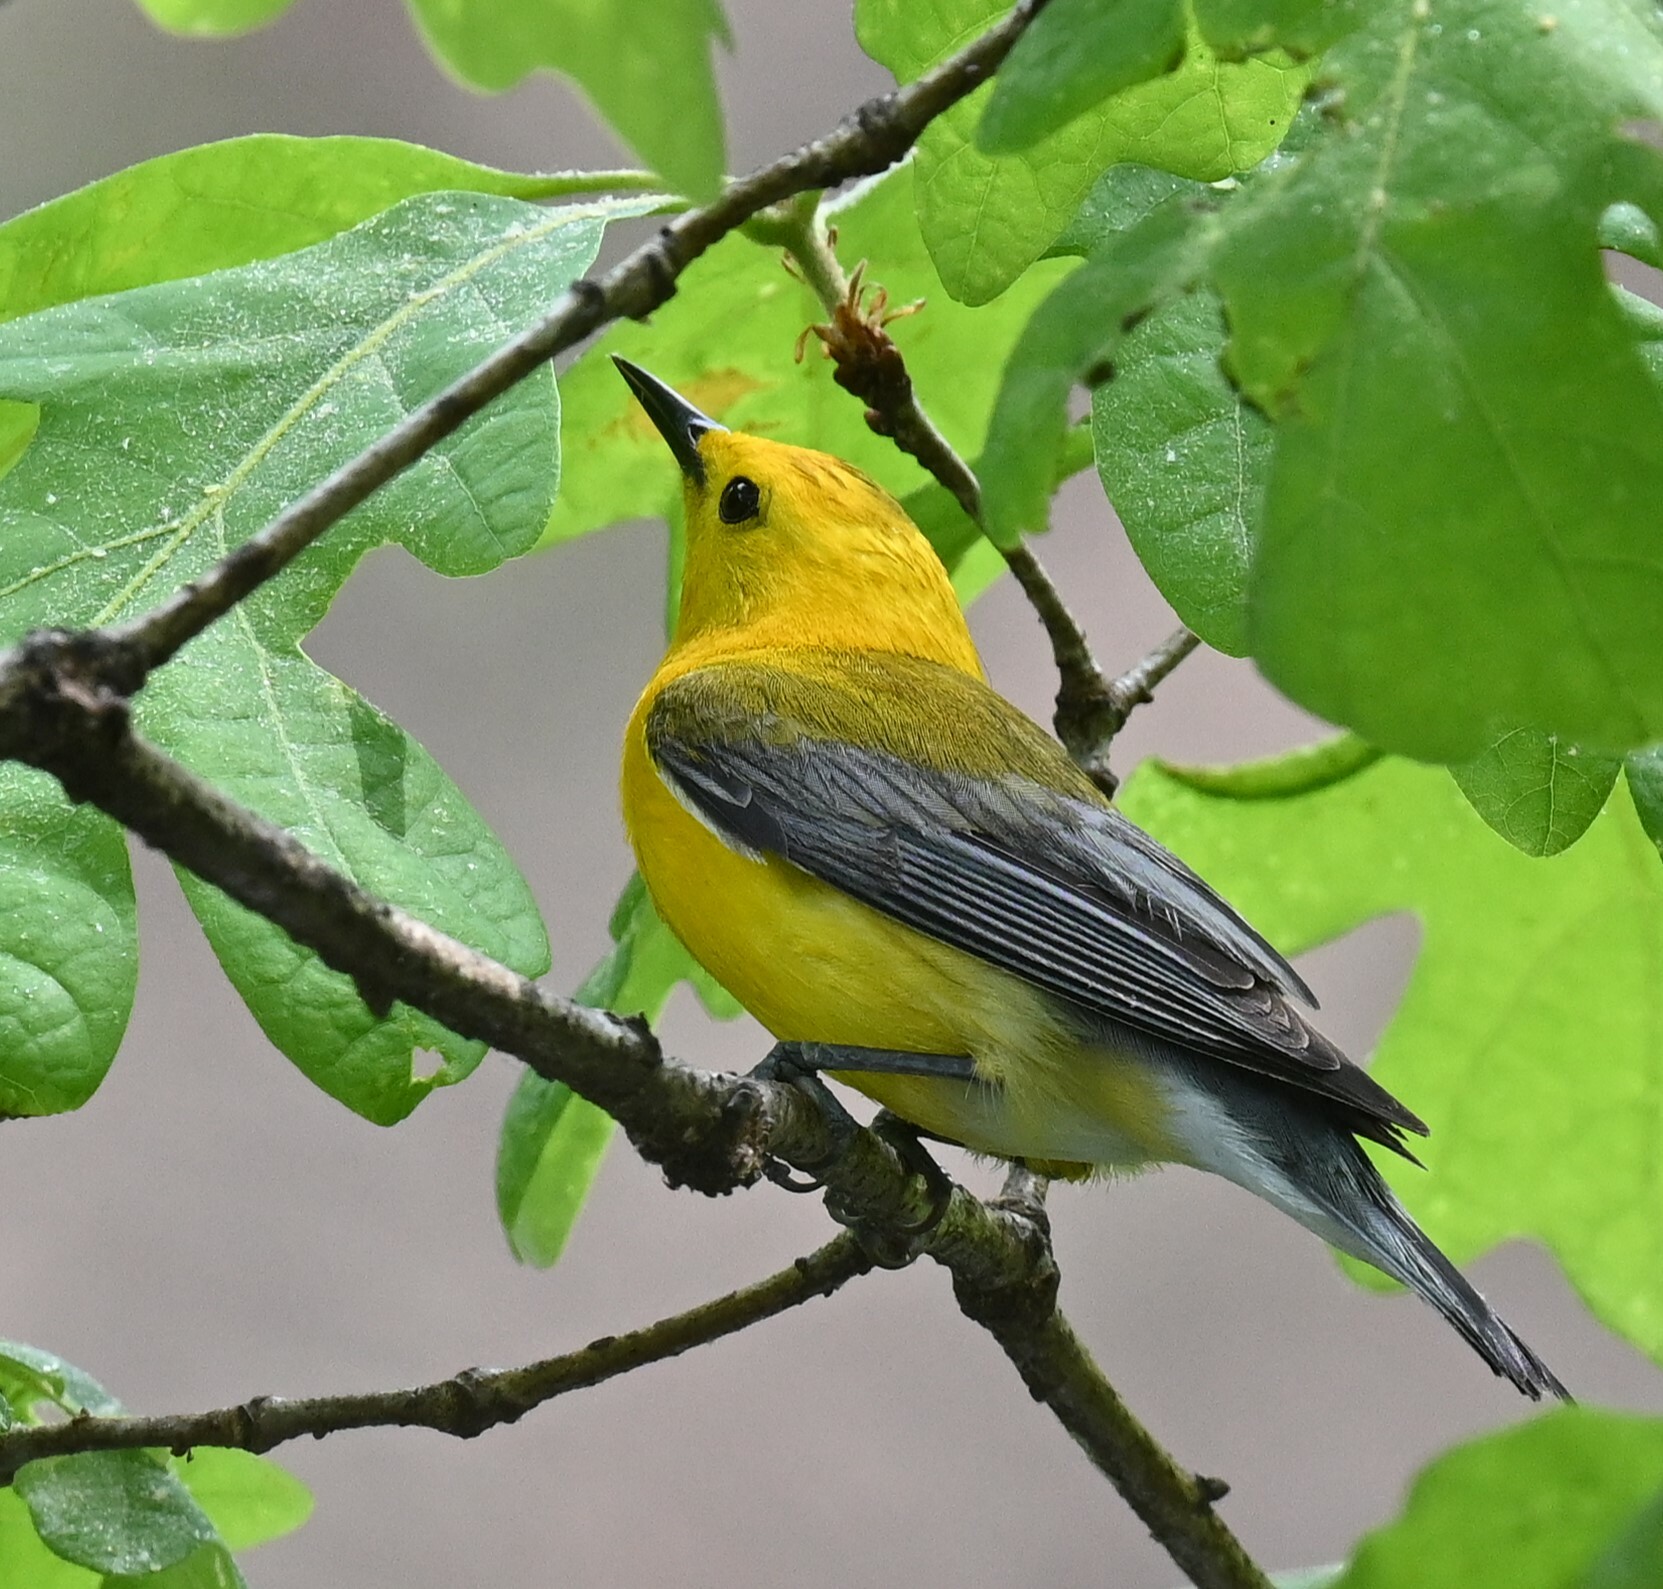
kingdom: Animalia
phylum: Chordata
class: Aves
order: Passeriformes
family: Parulidae
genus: Protonotaria
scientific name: Protonotaria citrea
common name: Prothonotary warbler
